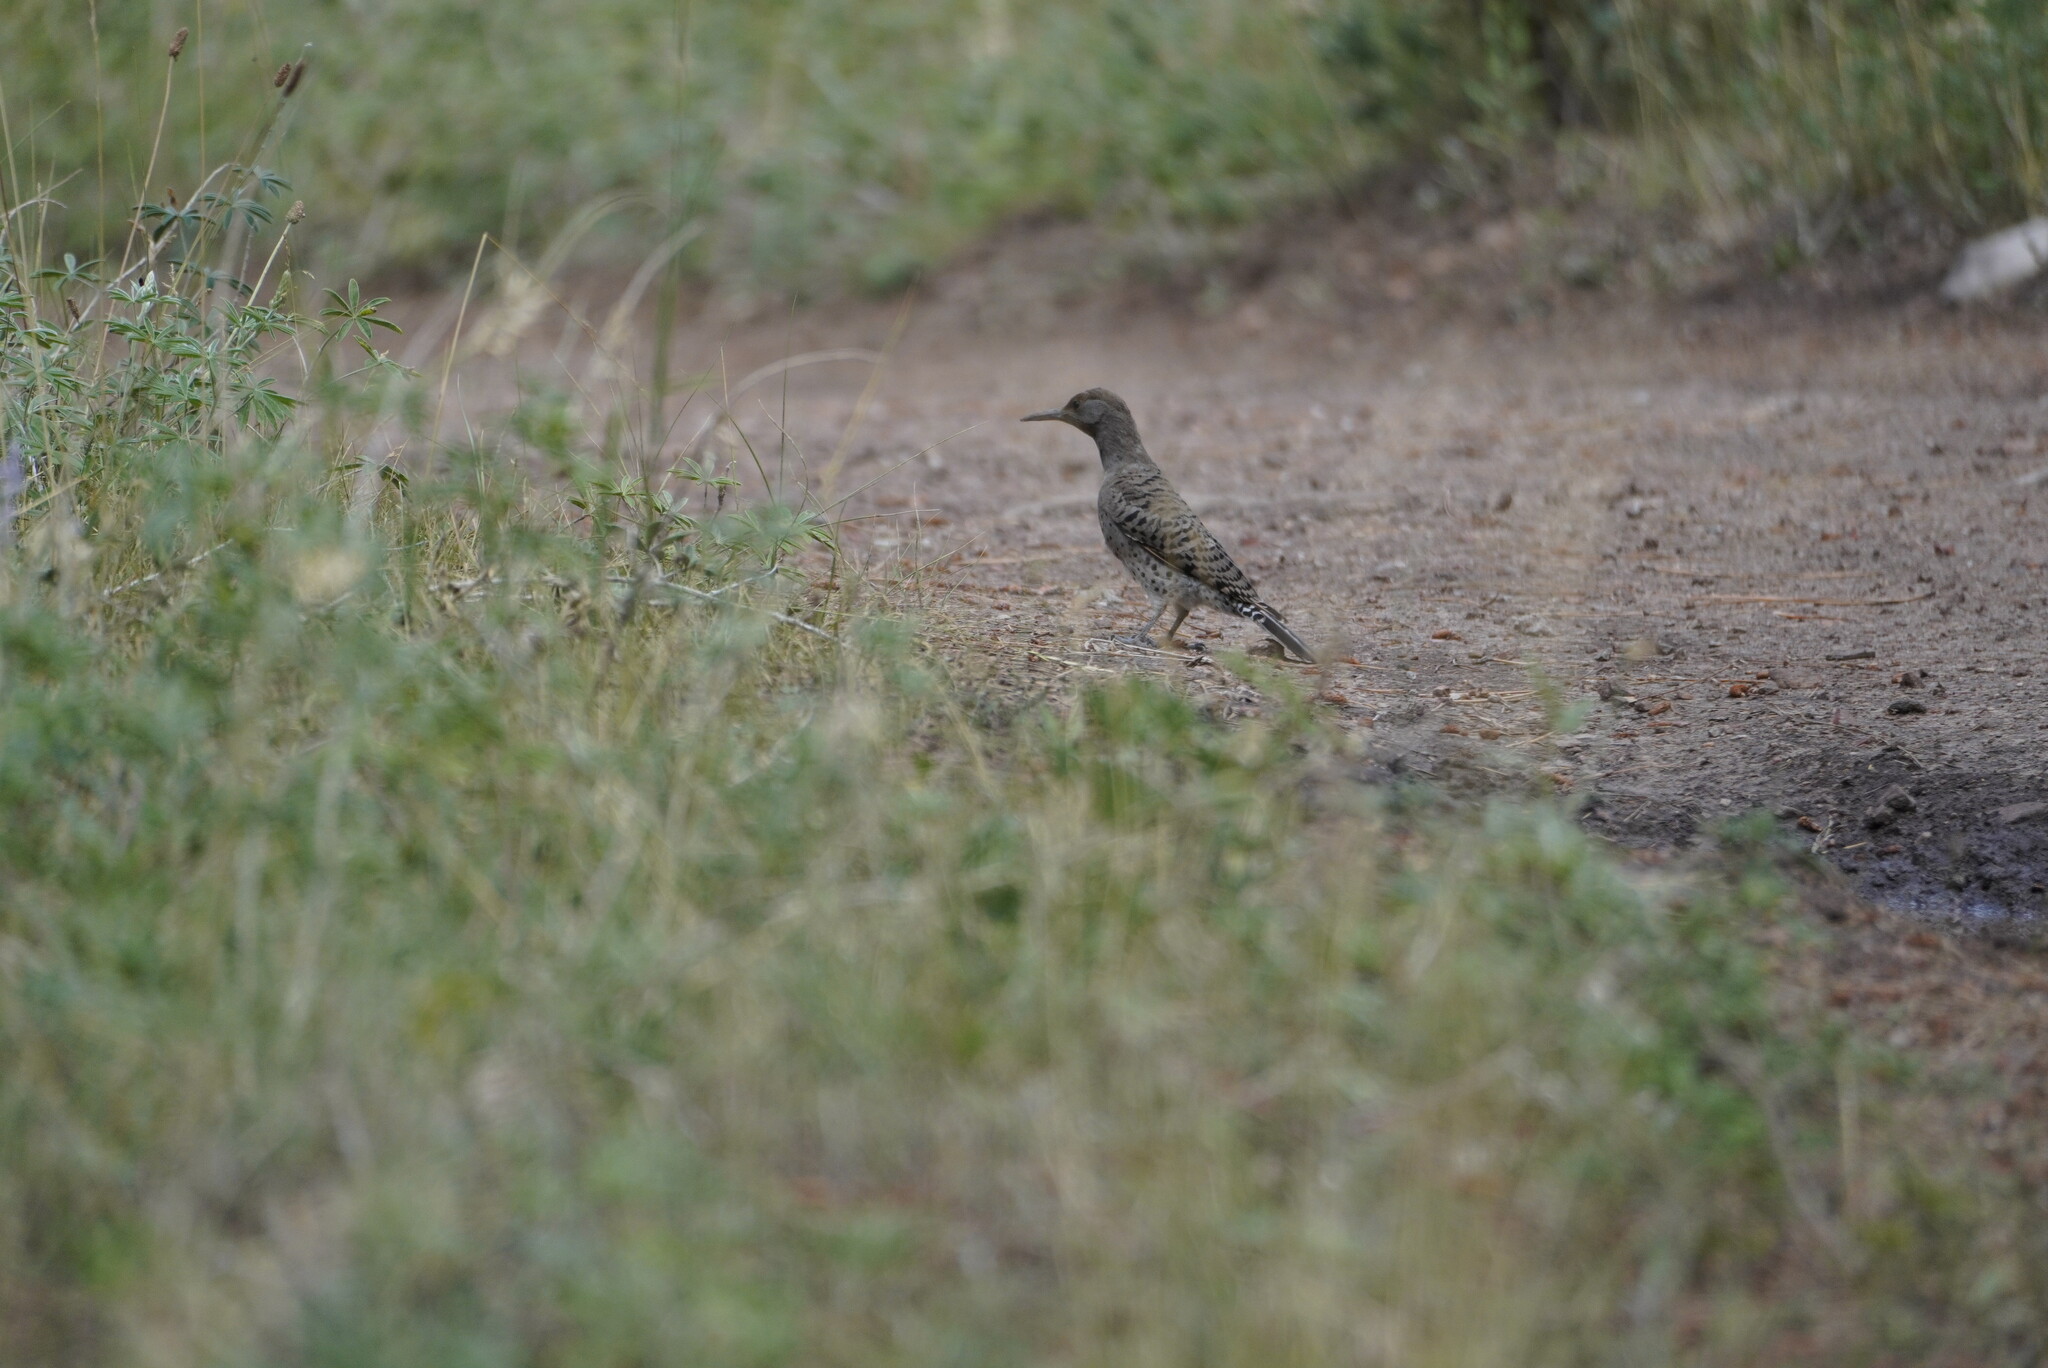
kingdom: Animalia
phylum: Chordata
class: Aves
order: Piciformes
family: Picidae
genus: Colaptes
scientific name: Colaptes auratus
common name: Northern flicker
